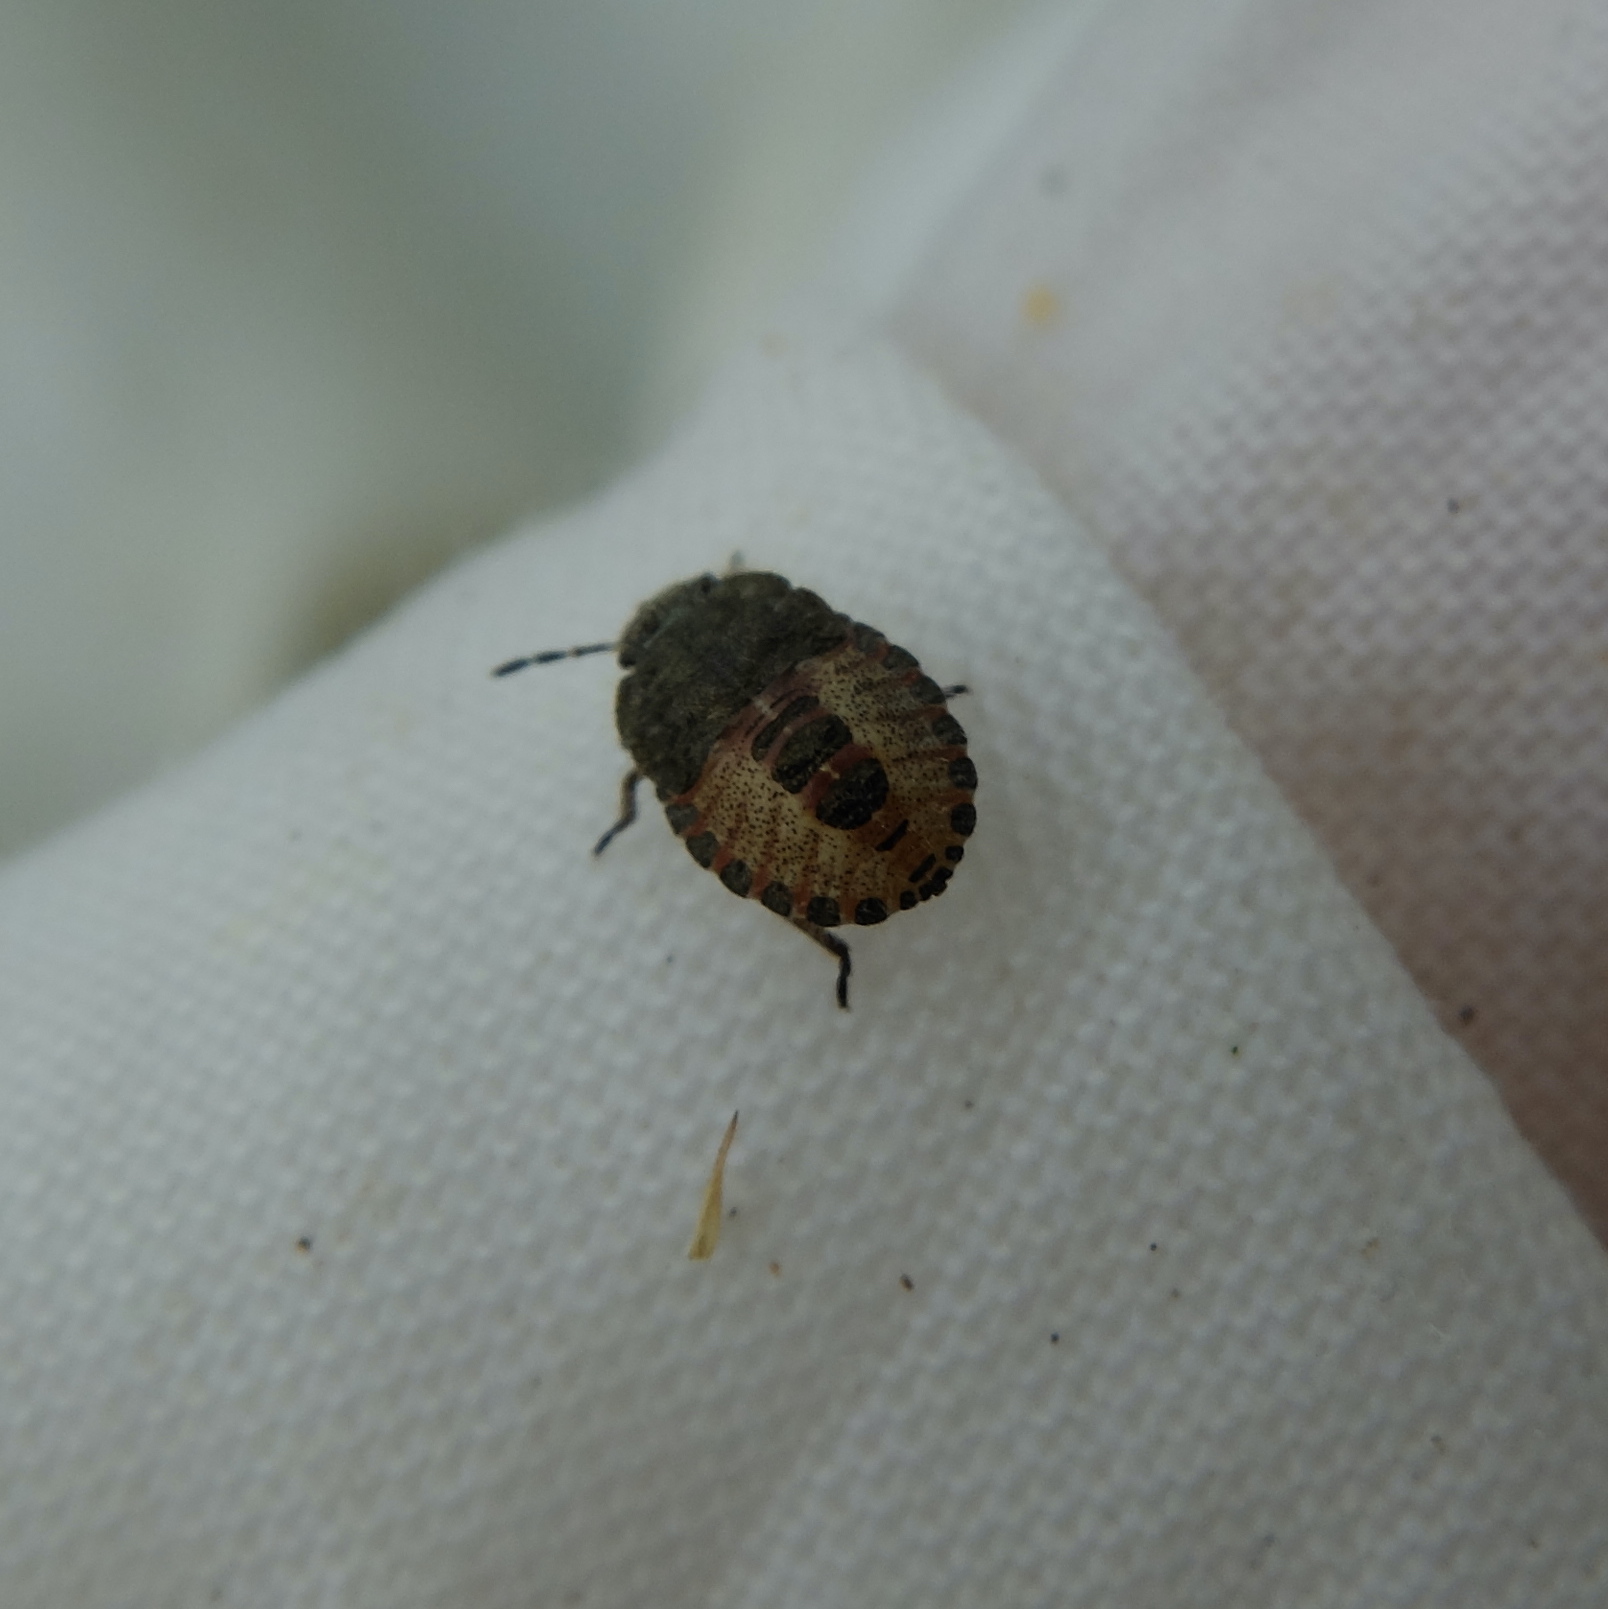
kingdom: Animalia
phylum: Arthropoda
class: Insecta
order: Hemiptera
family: Pentatomidae
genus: Dolycoris
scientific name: Dolycoris baccarum
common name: Sloe bug
